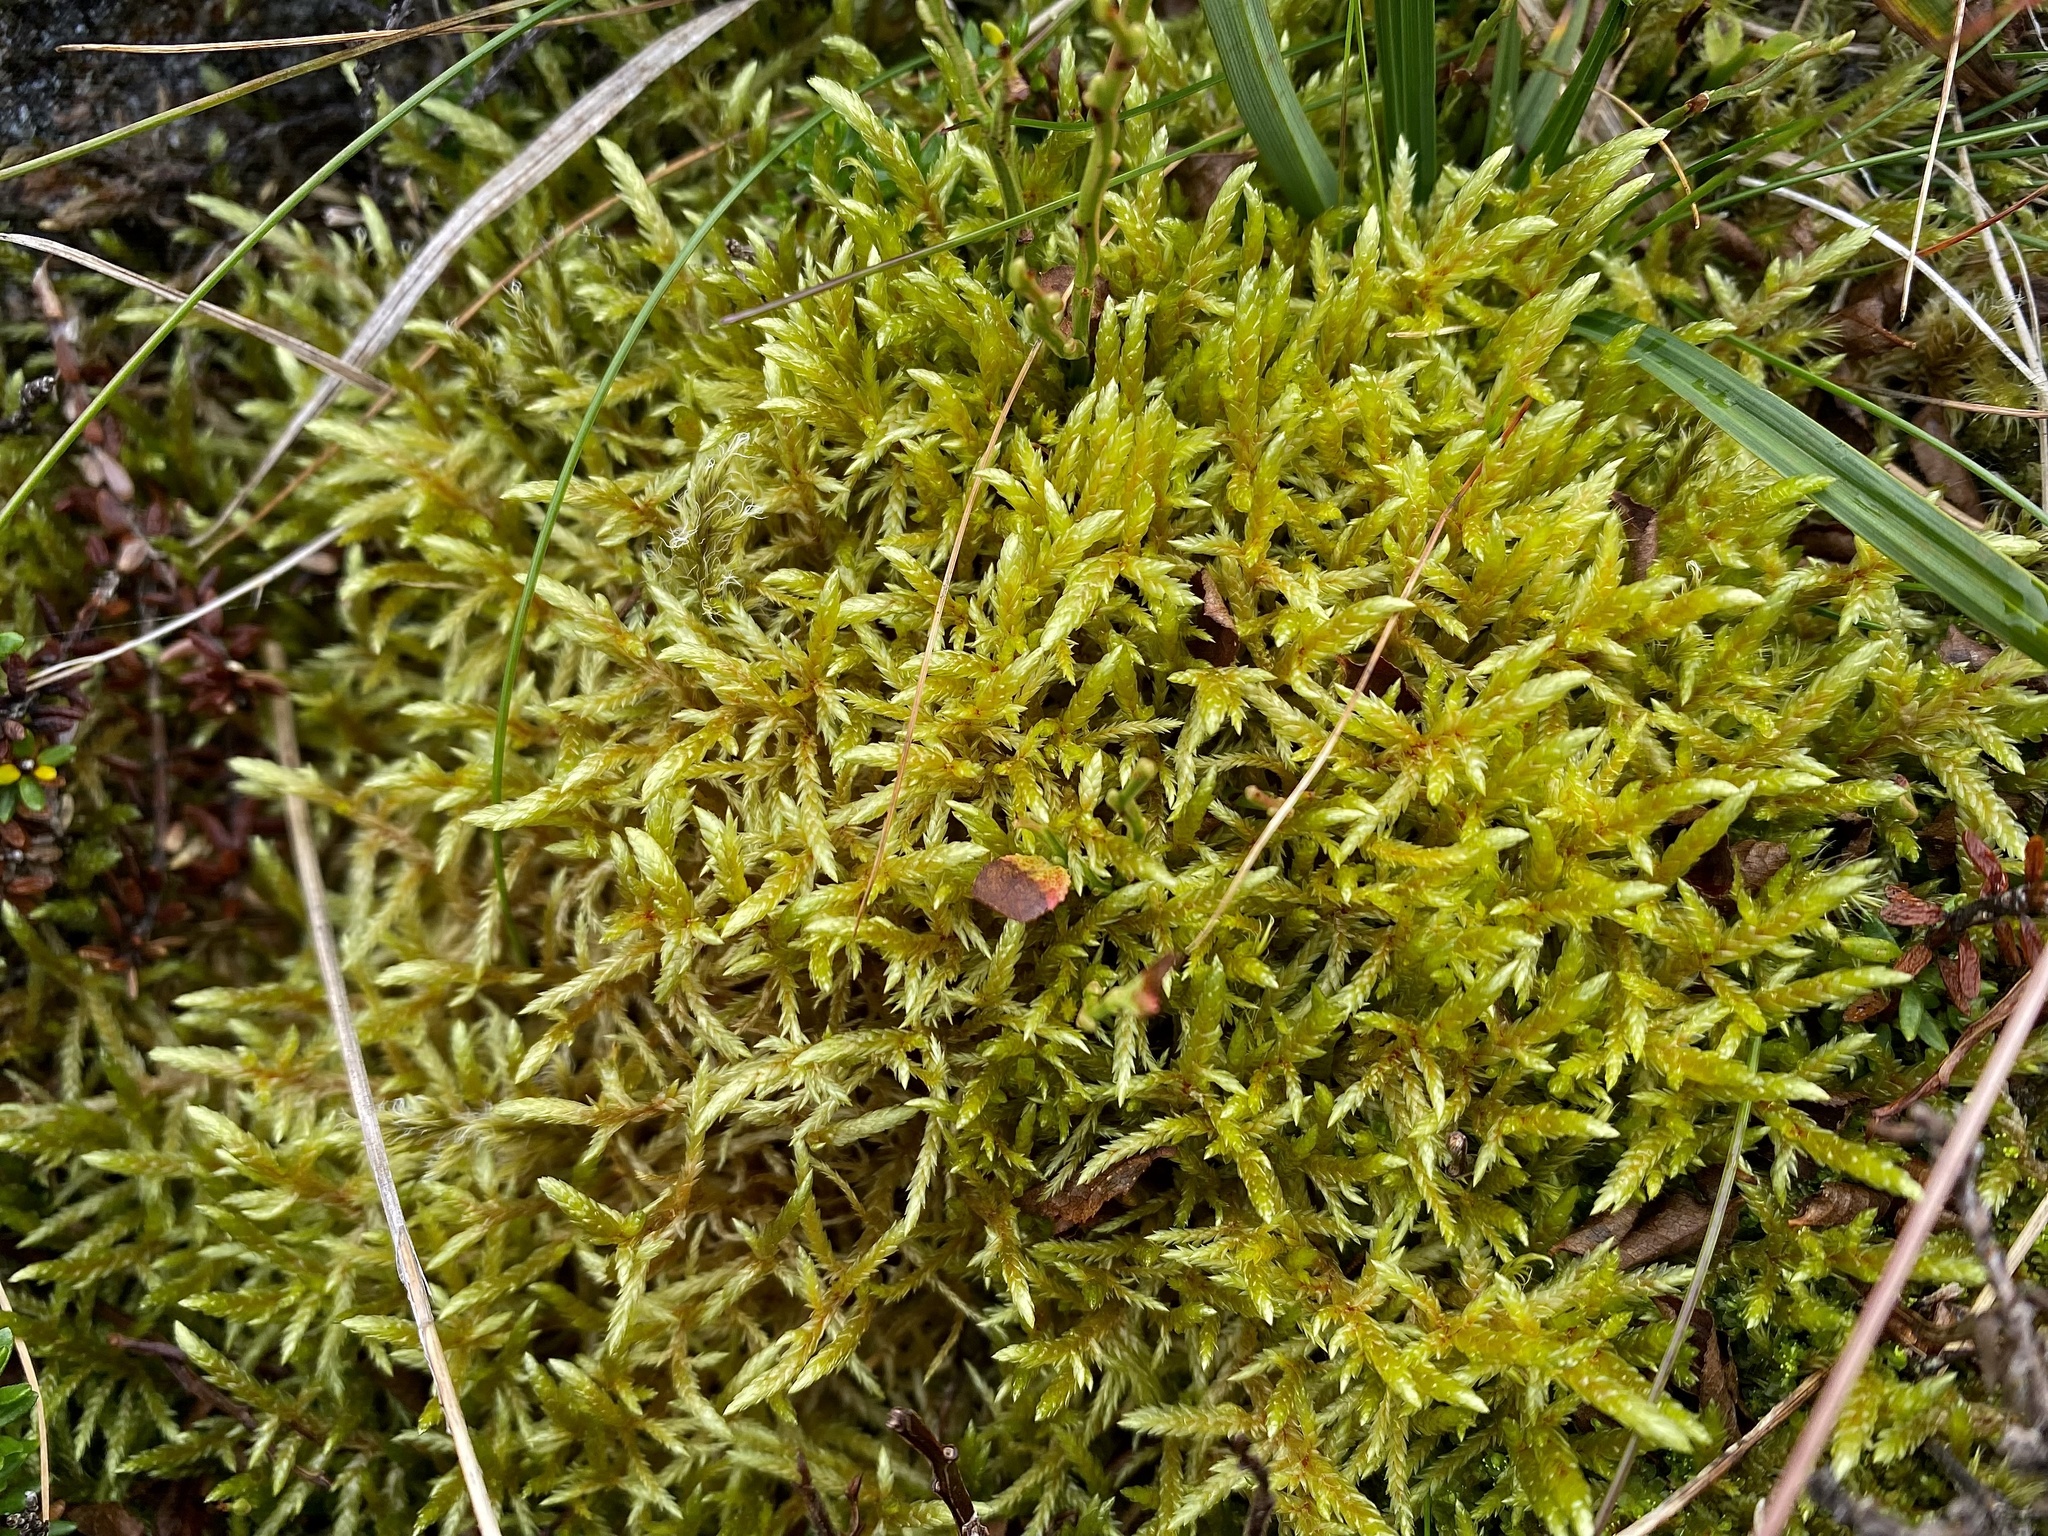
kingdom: Plantae
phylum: Bryophyta
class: Bryopsida
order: Hypnales
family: Hylocomiaceae
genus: Pleurozium
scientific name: Pleurozium schreberi
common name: Red-stemmed feather moss
